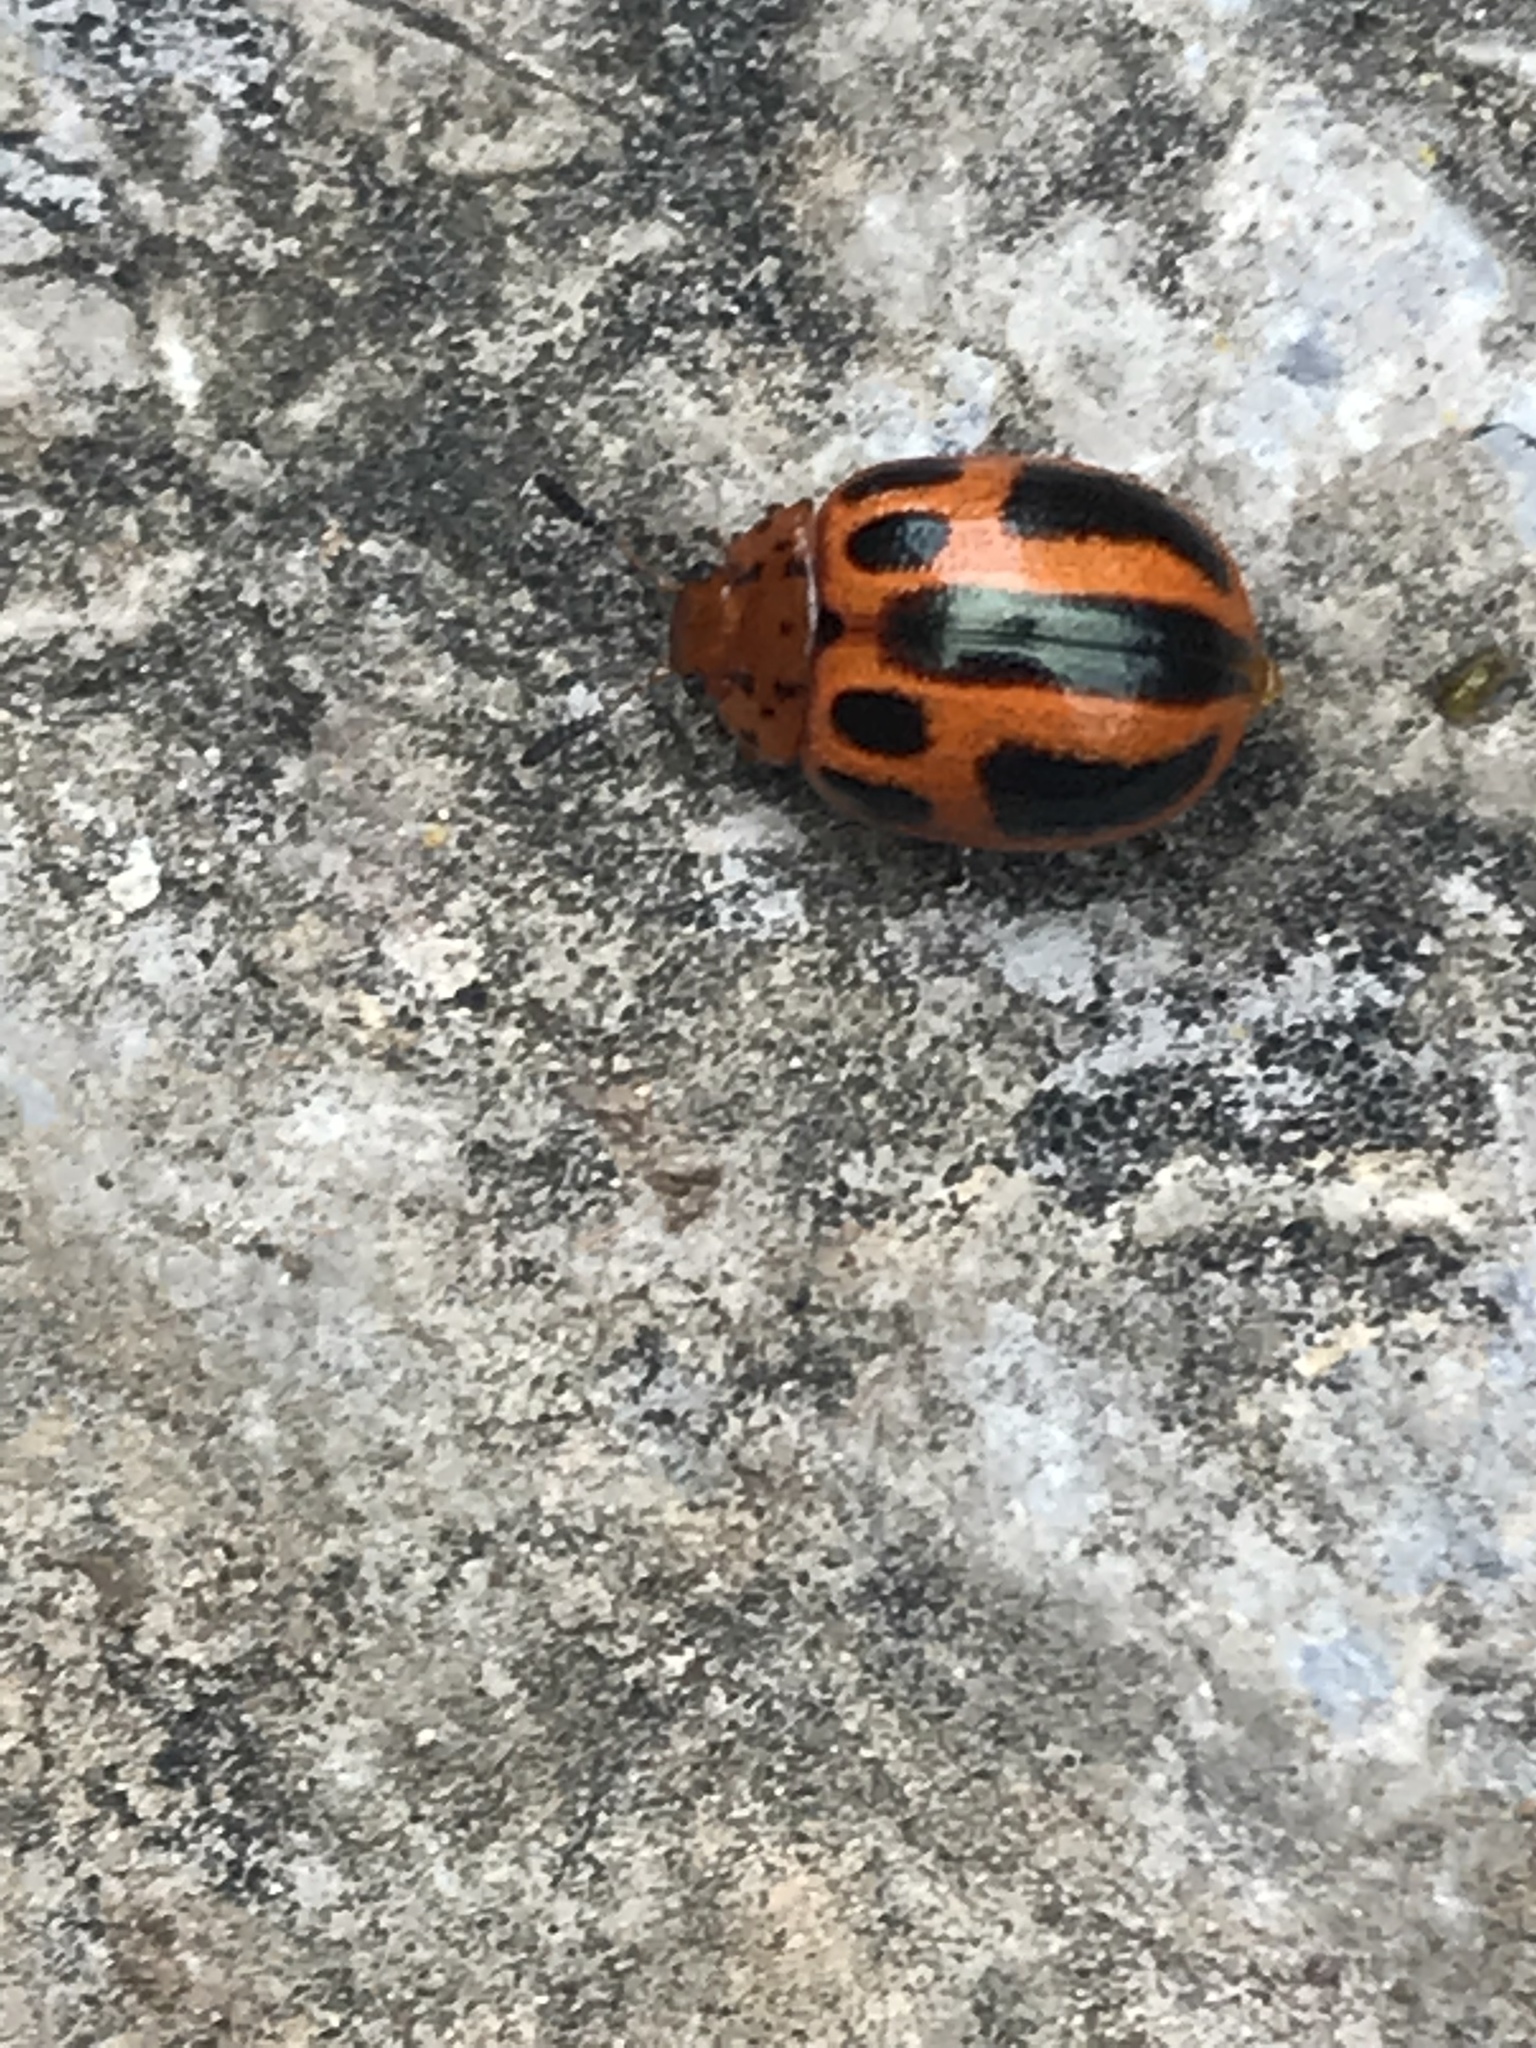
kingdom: Animalia
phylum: Arthropoda
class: Insecta
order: Coleoptera
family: Chrysomelidae
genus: Plagiodera
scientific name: Plagiodera
